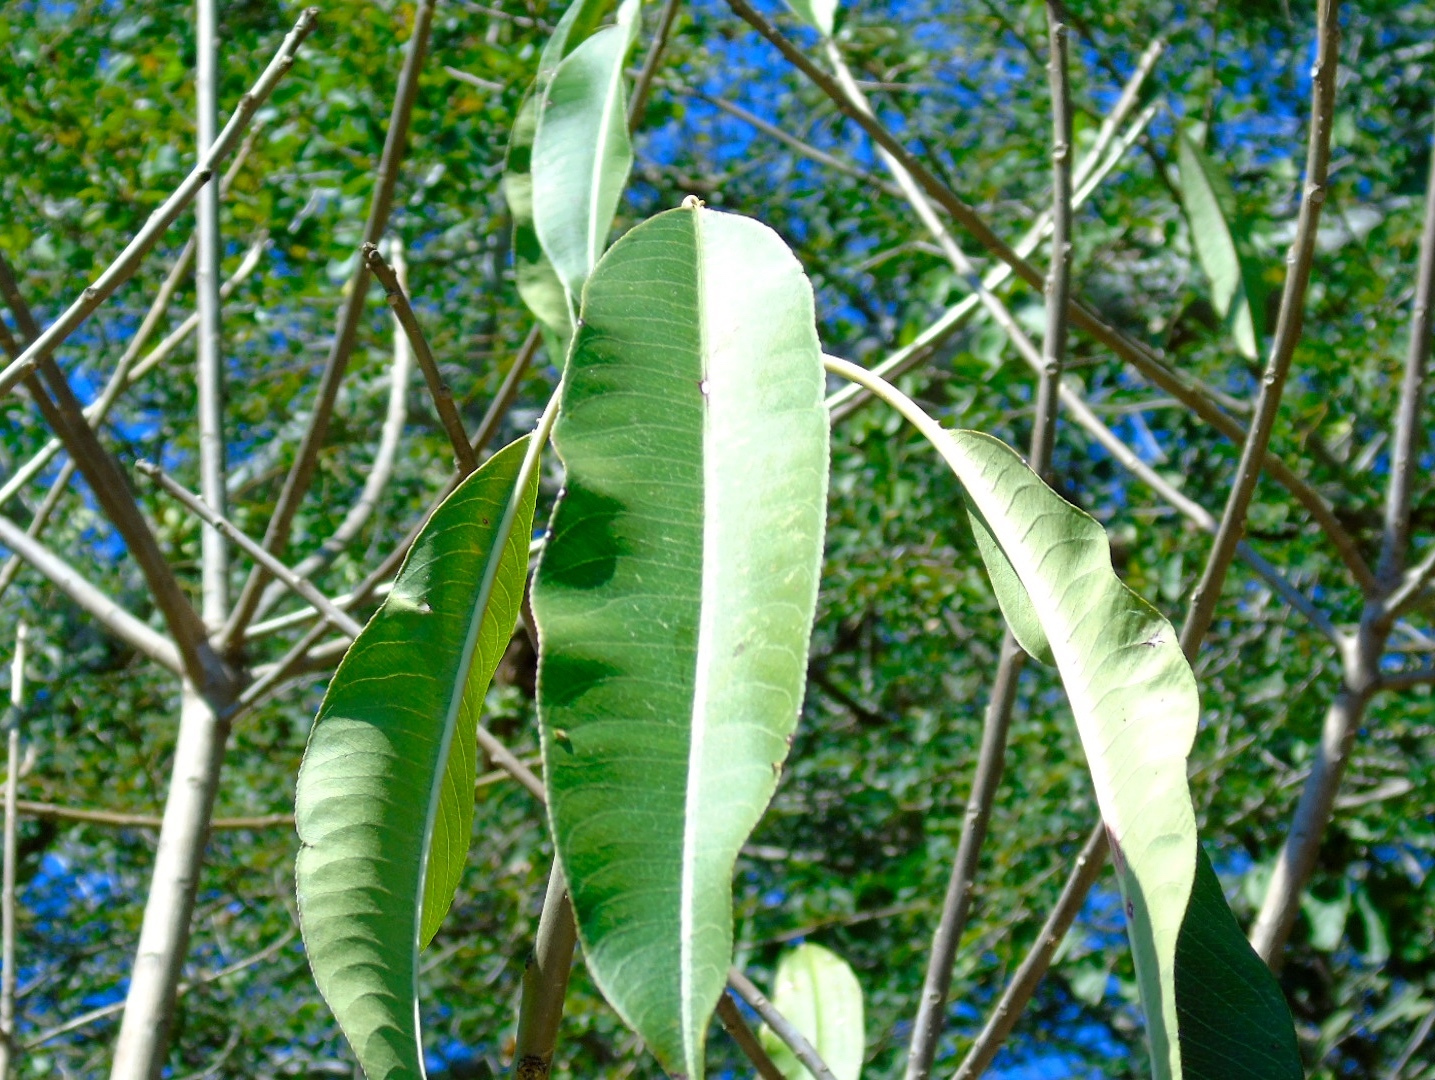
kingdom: Plantae
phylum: Tracheophyta
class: Magnoliopsida
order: Malpighiales
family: Euphorbiaceae
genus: Sapium
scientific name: Sapium lateriflorum
